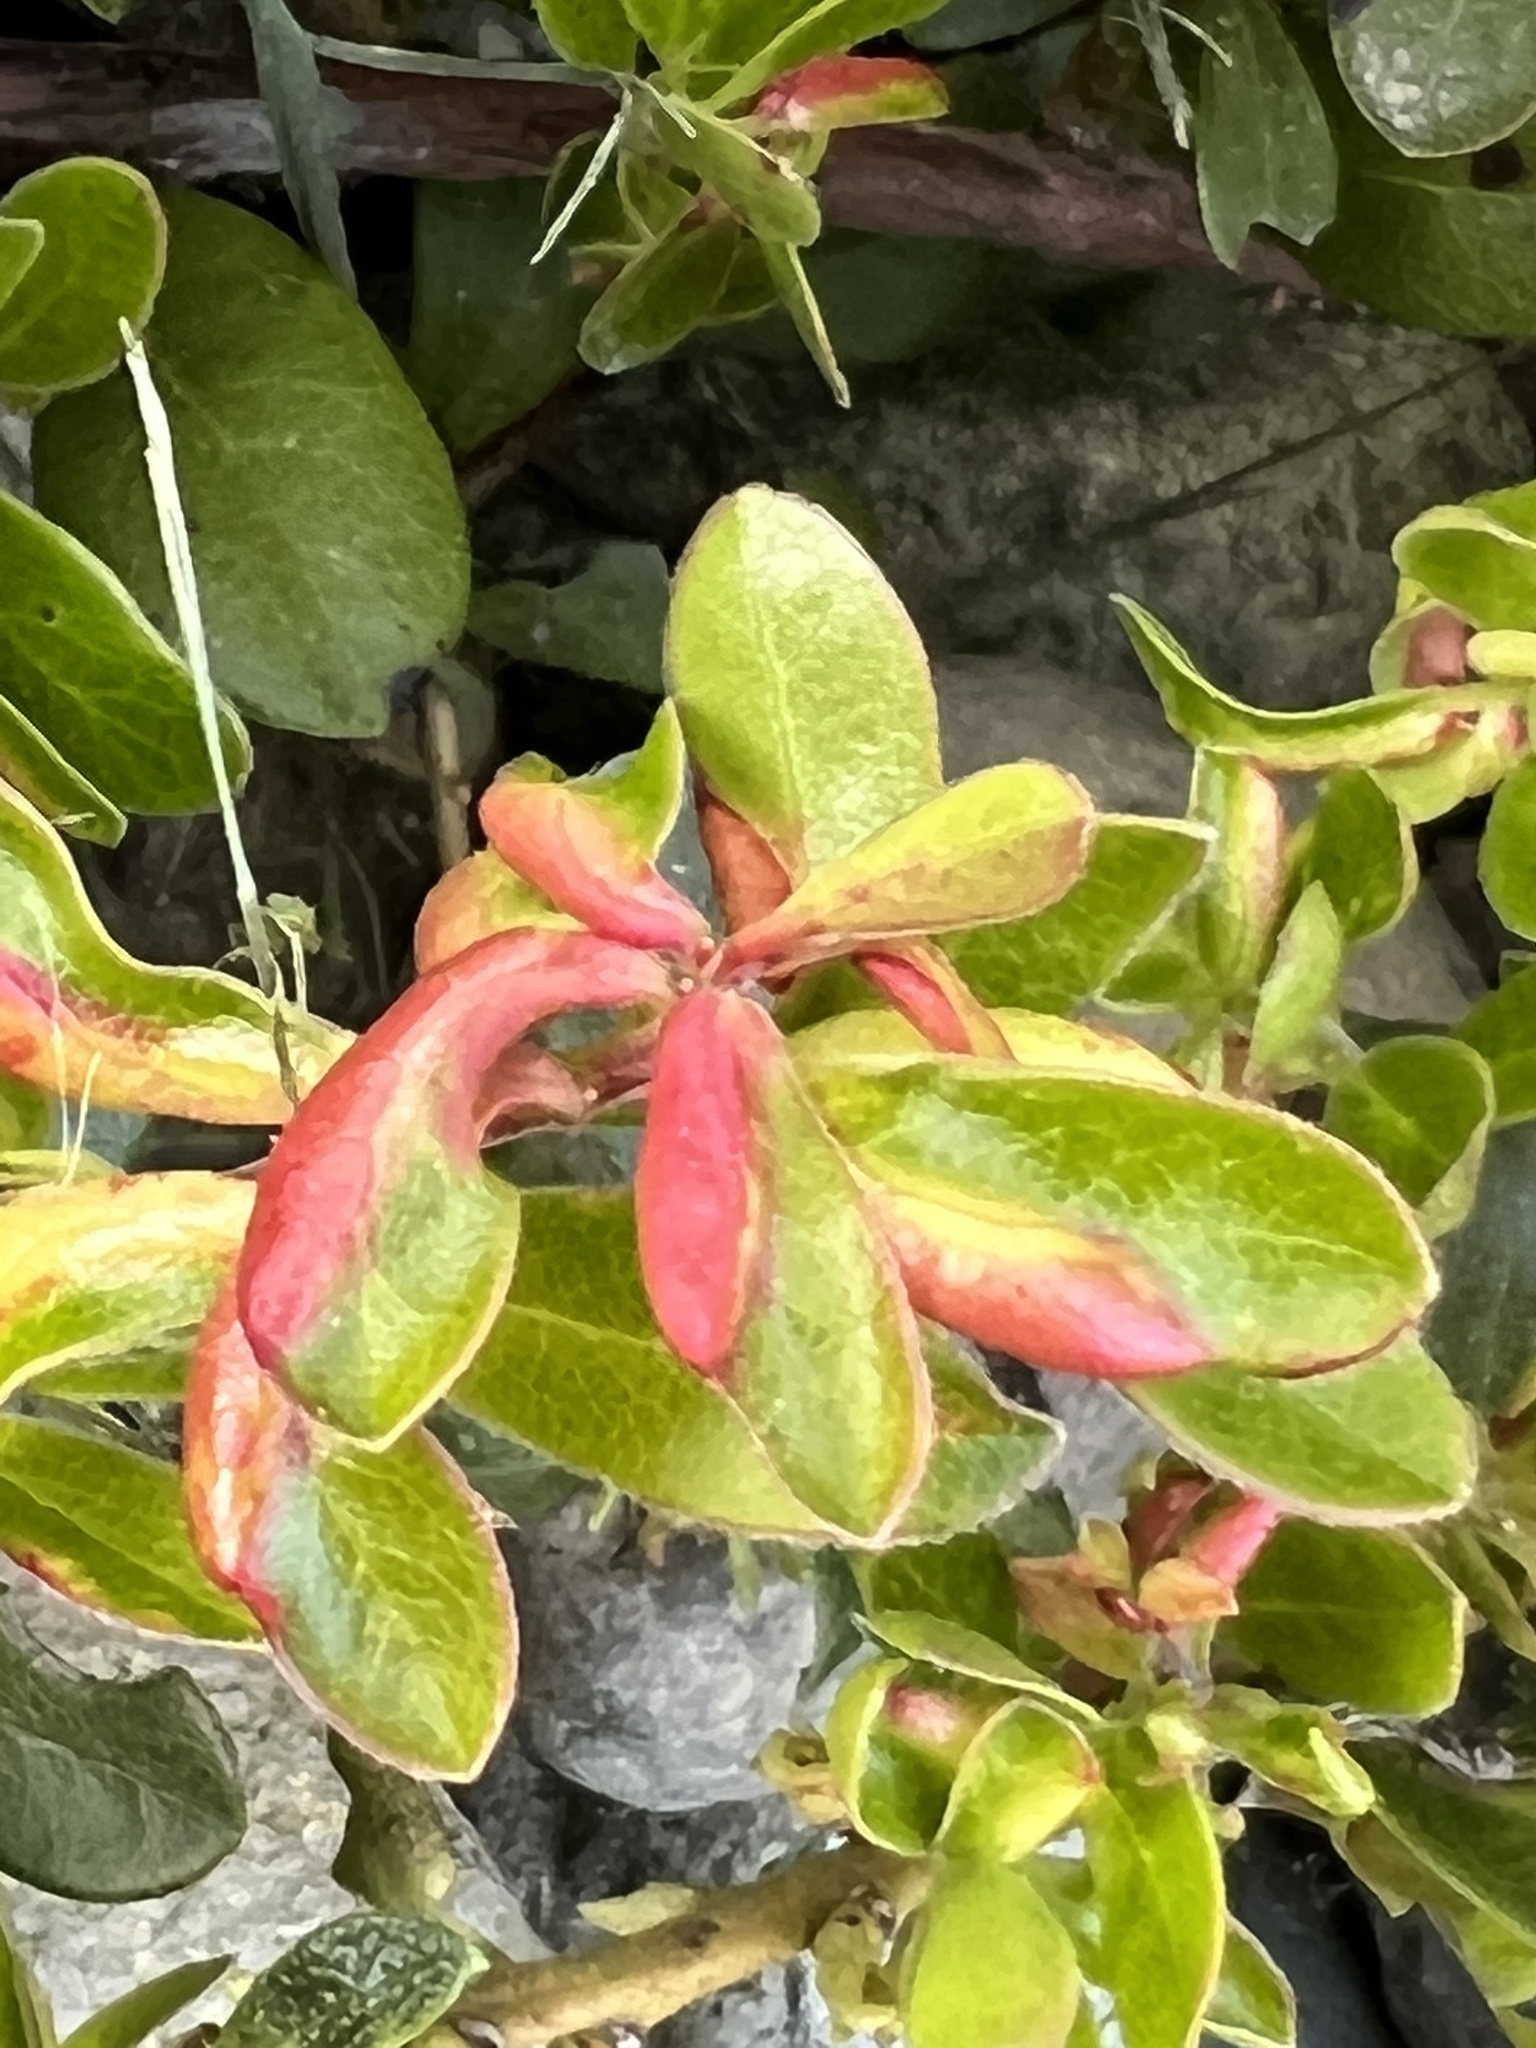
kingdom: Animalia
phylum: Arthropoda
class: Insecta
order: Hemiptera
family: Aphididae
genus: Tamalia
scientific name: Tamalia coweni
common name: Manzanita leafgall aphid
